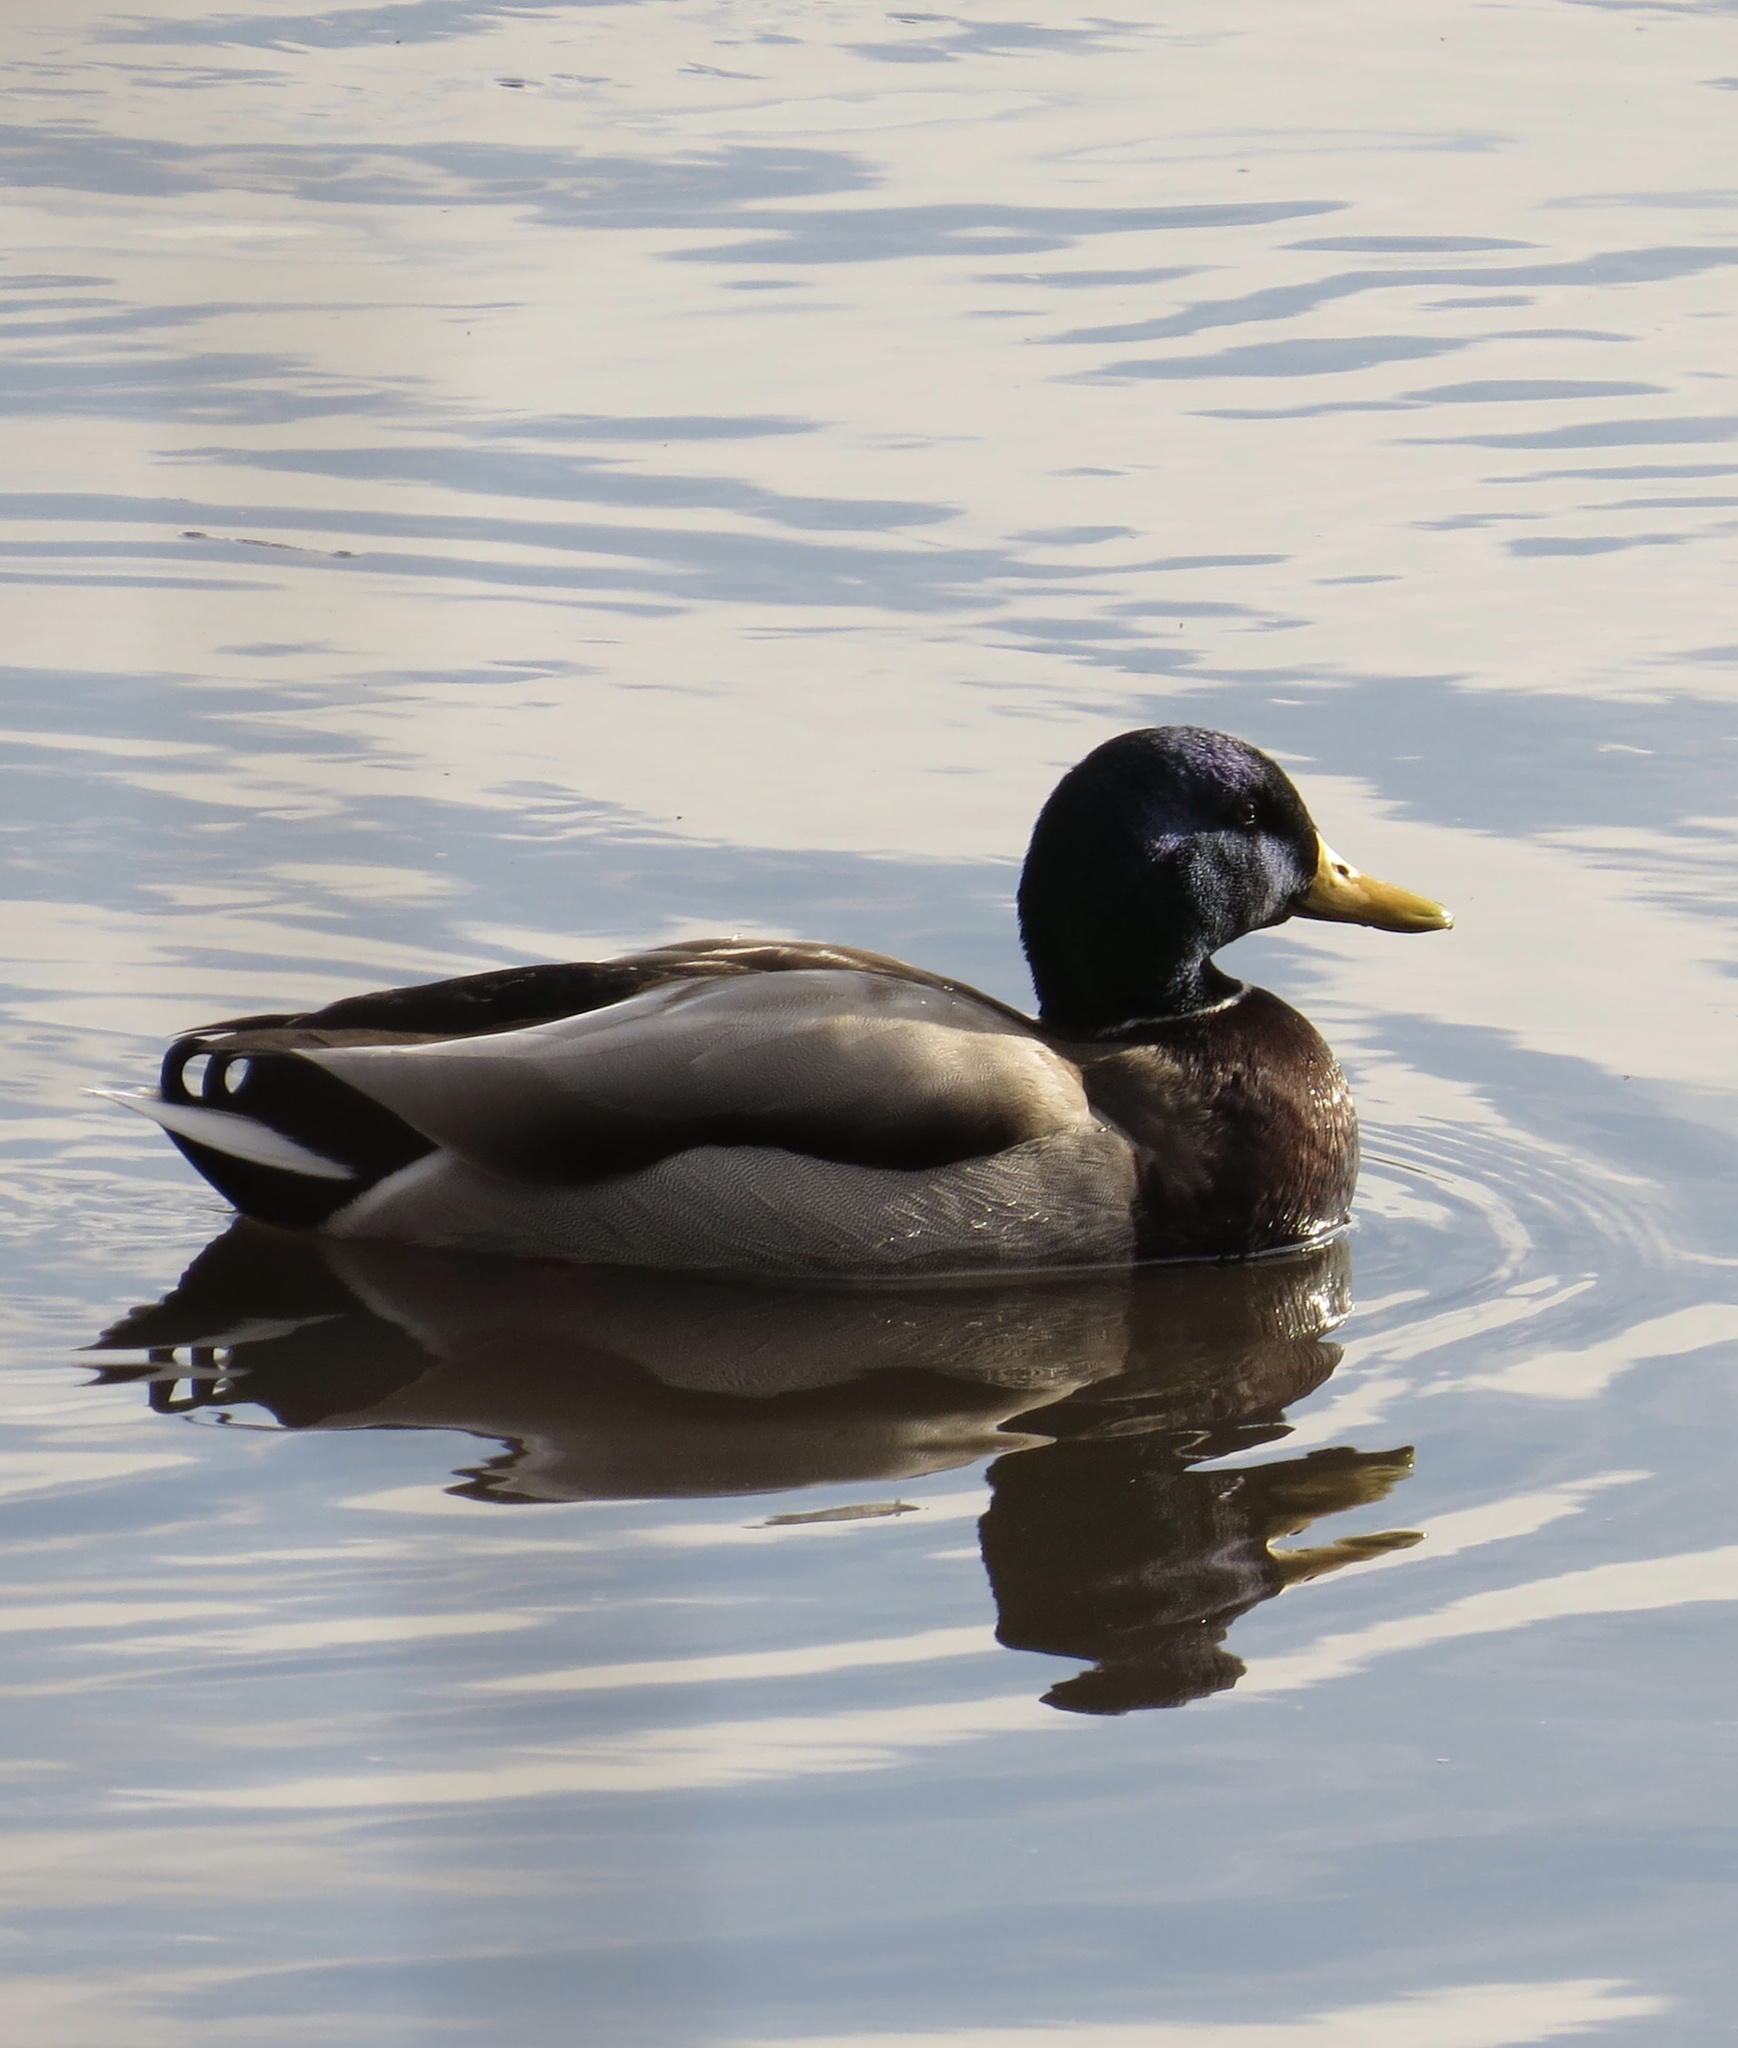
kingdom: Animalia
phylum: Chordata
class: Aves
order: Anseriformes
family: Anatidae
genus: Anas
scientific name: Anas platyrhynchos
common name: Mallard
